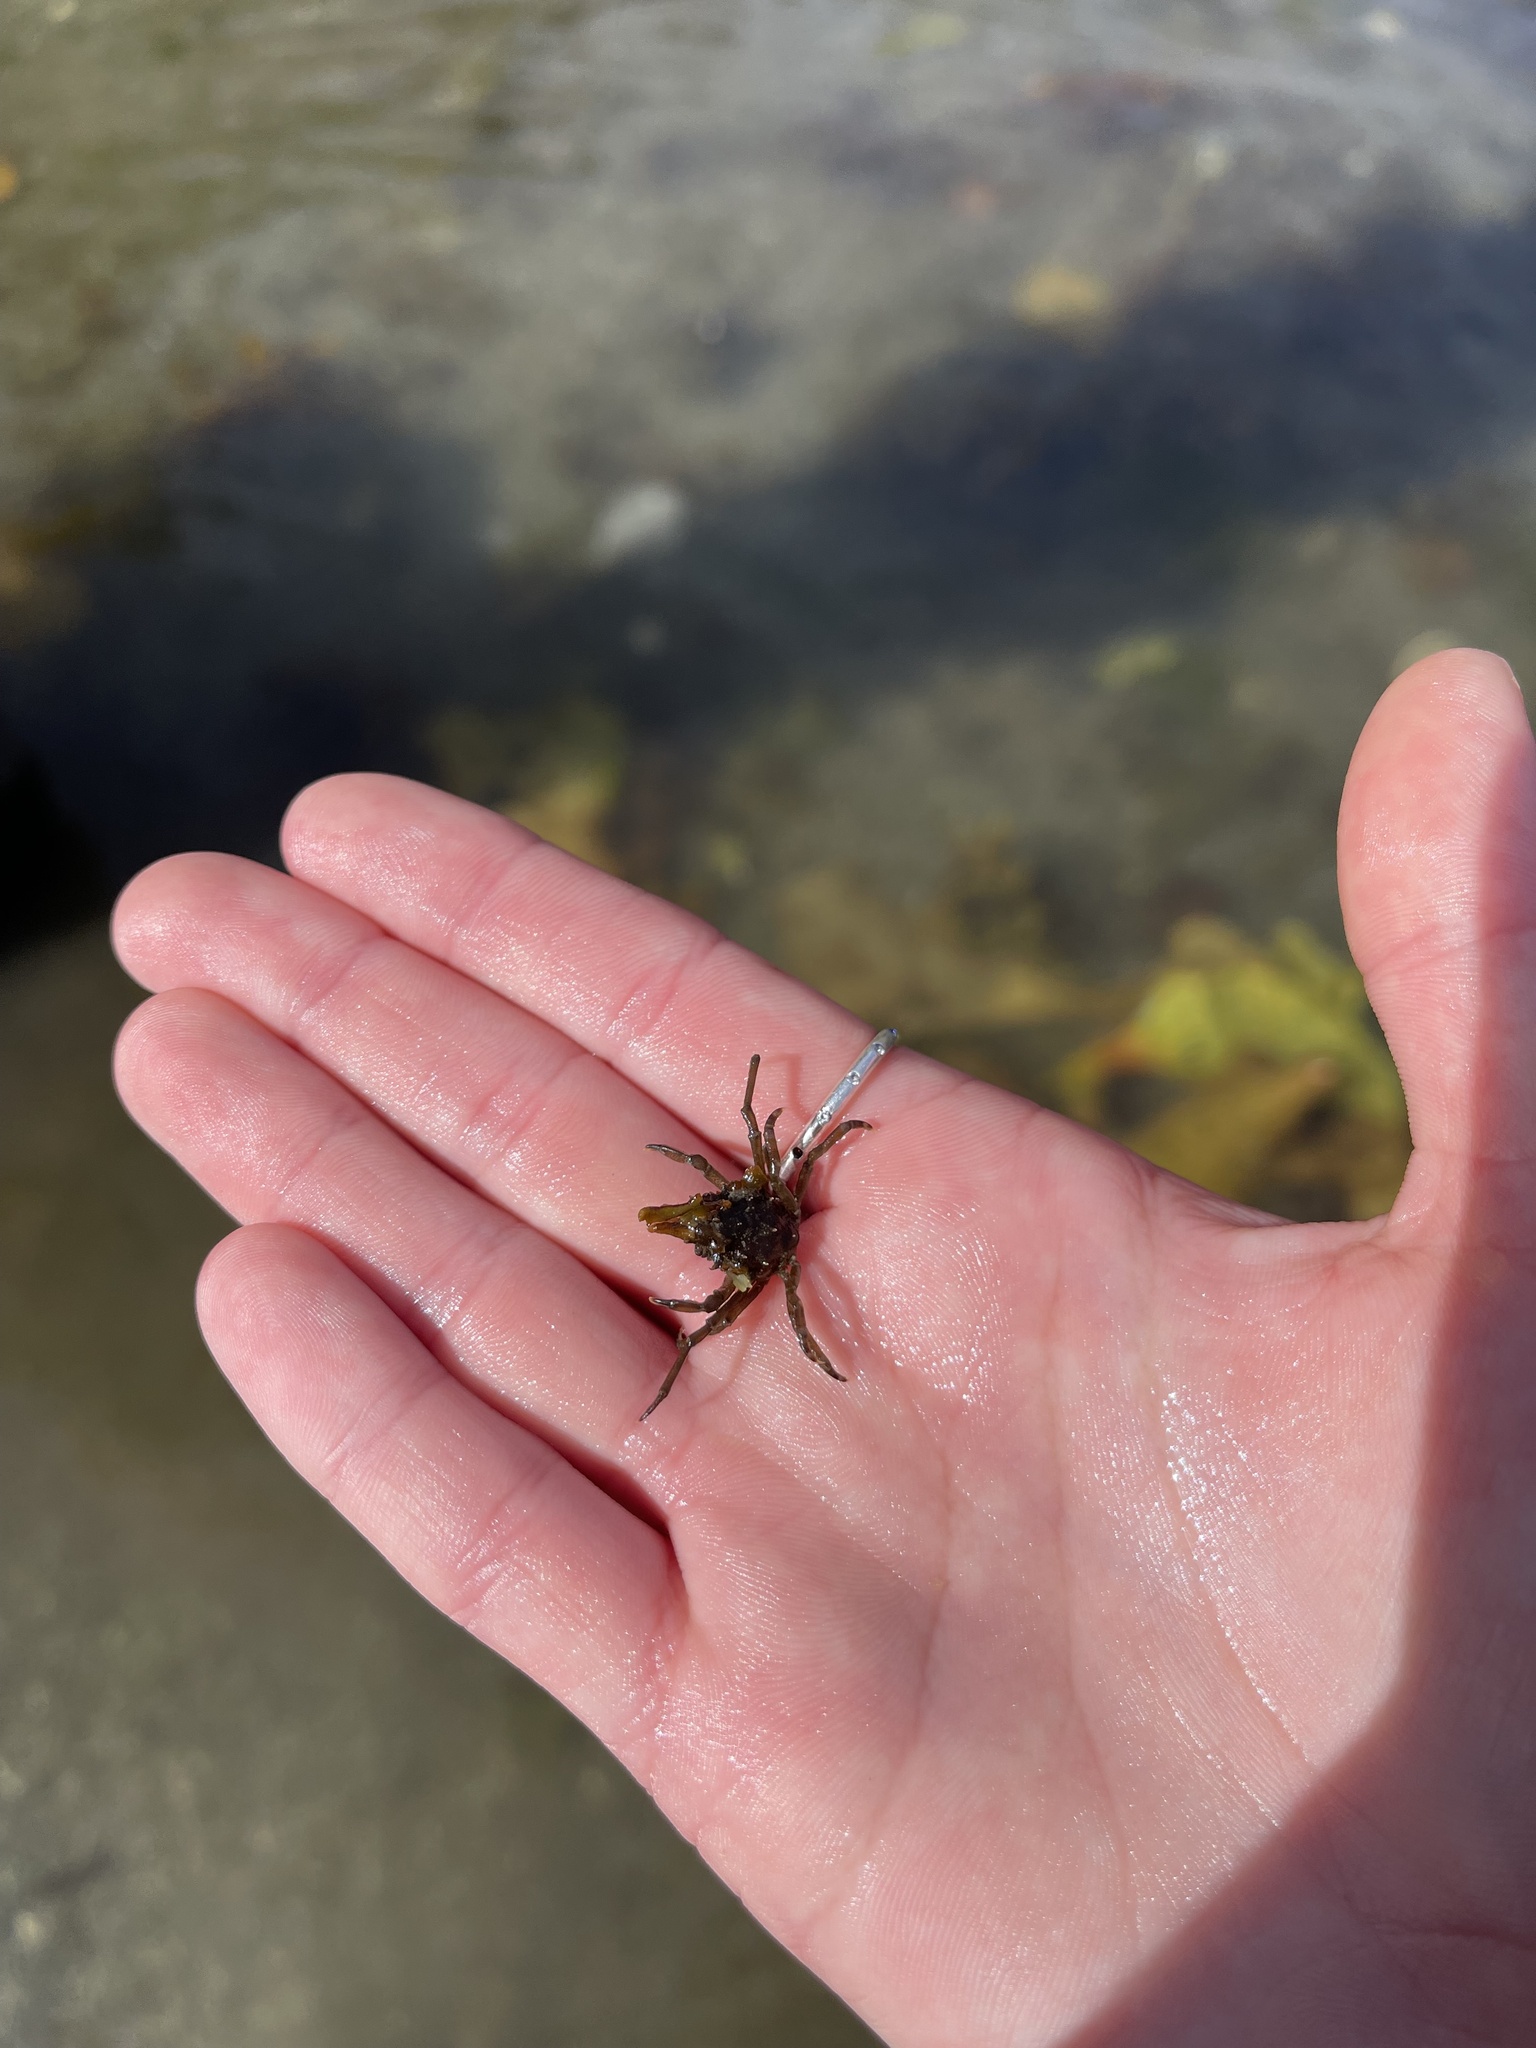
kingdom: Animalia
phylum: Arthropoda
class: Malacostraca
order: Decapoda
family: Epialtidae
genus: Pugettia
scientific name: Pugettia gracilis
